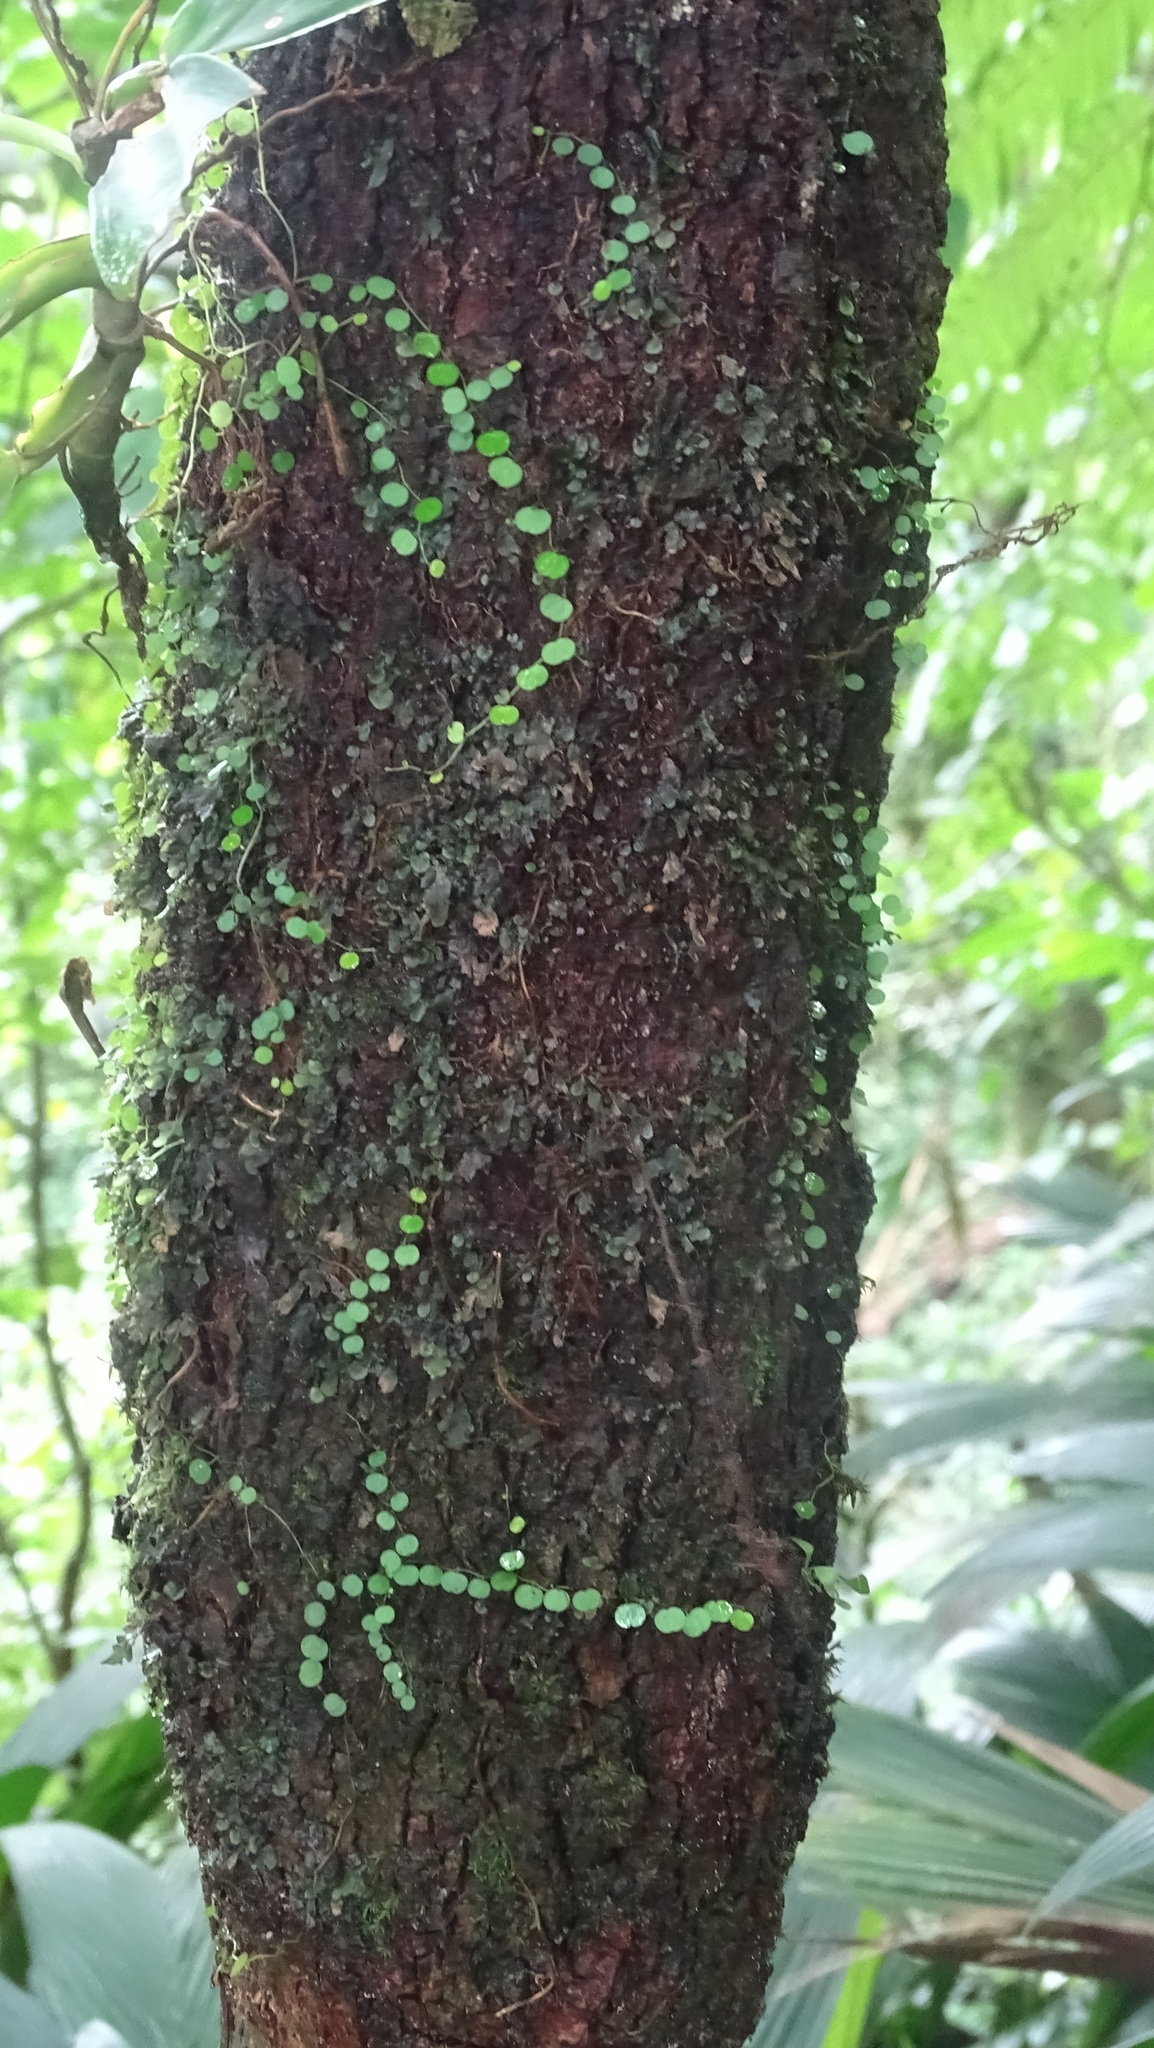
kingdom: Plantae
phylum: Tracheophyta
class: Magnoliopsida
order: Piperales
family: Piperaceae
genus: Peperomia
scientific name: Peperomia emarginella
